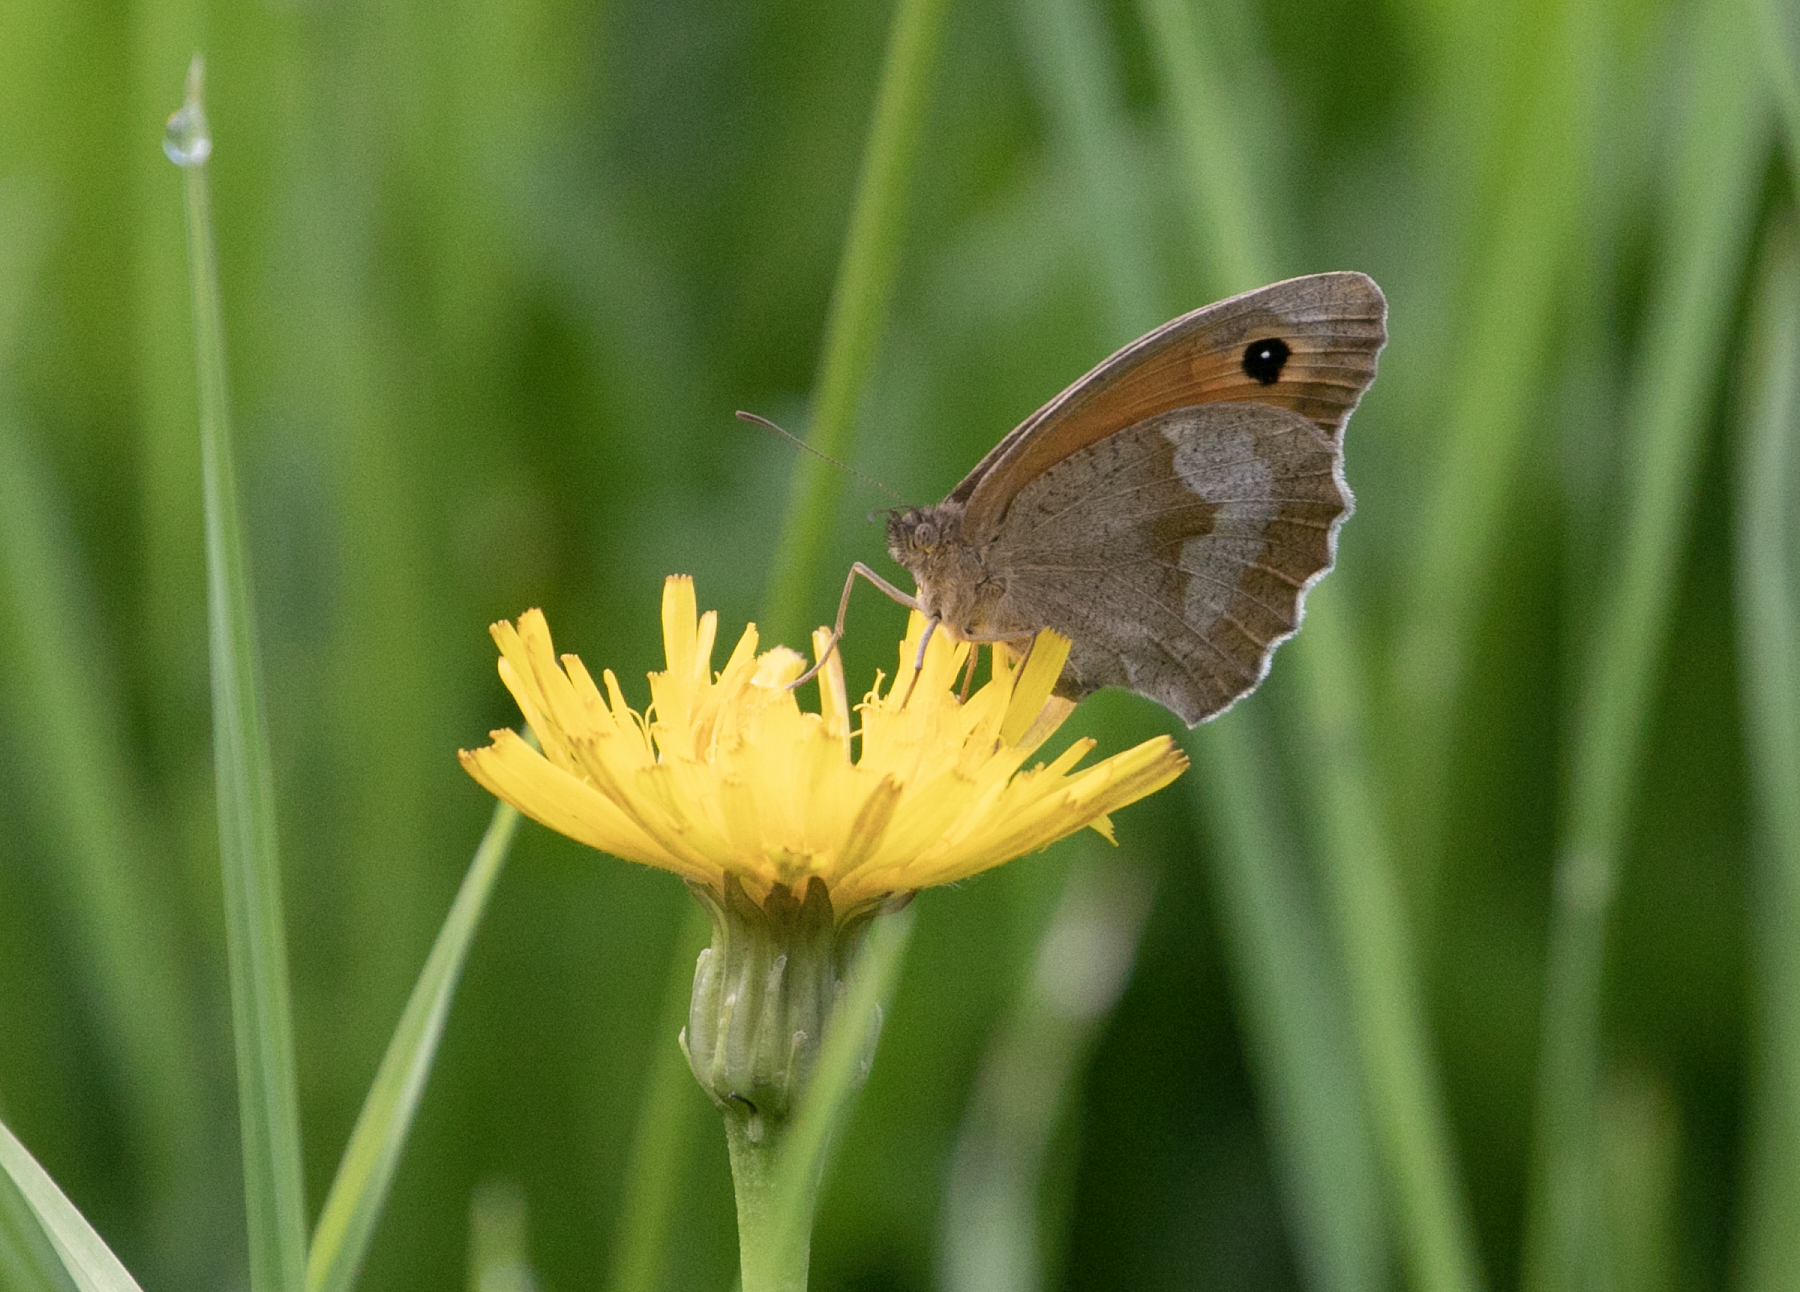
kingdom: Animalia
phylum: Arthropoda
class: Insecta
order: Lepidoptera
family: Nymphalidae
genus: Maniola
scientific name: Maniola jurtina
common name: Meadow brown
